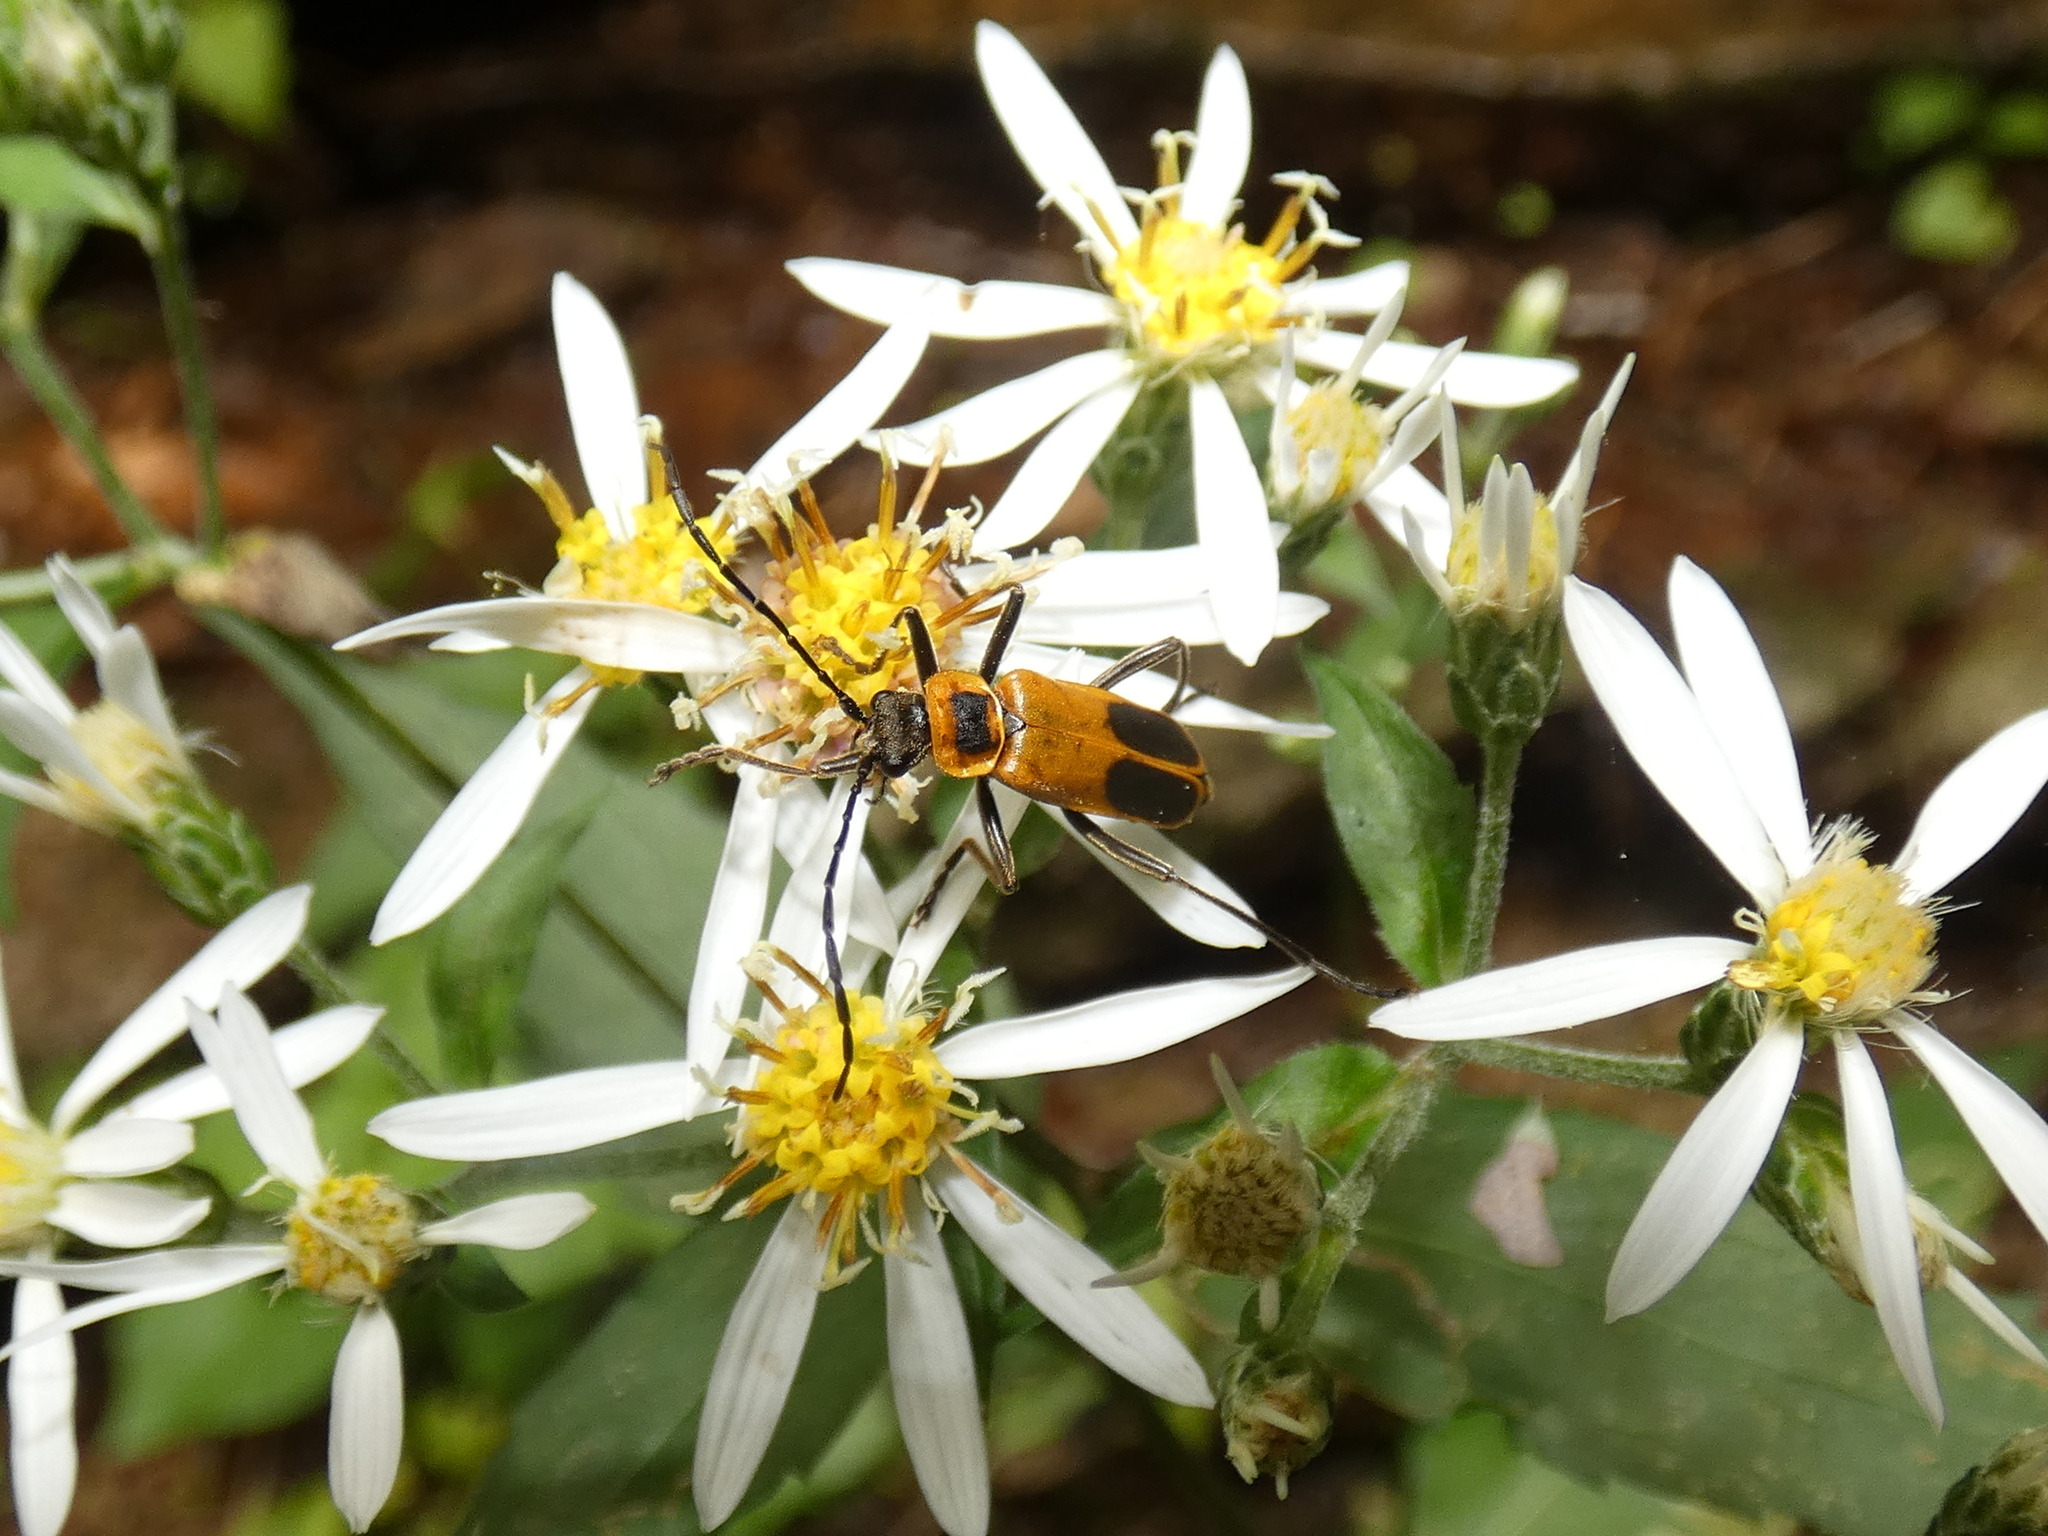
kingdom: Animalia
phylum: Arthropoda
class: Insecta
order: Coleoptera
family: Cantharidae
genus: Chauliognathus
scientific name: Chauliognathus pensylvanicus
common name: Goldenrod soldier beetle
